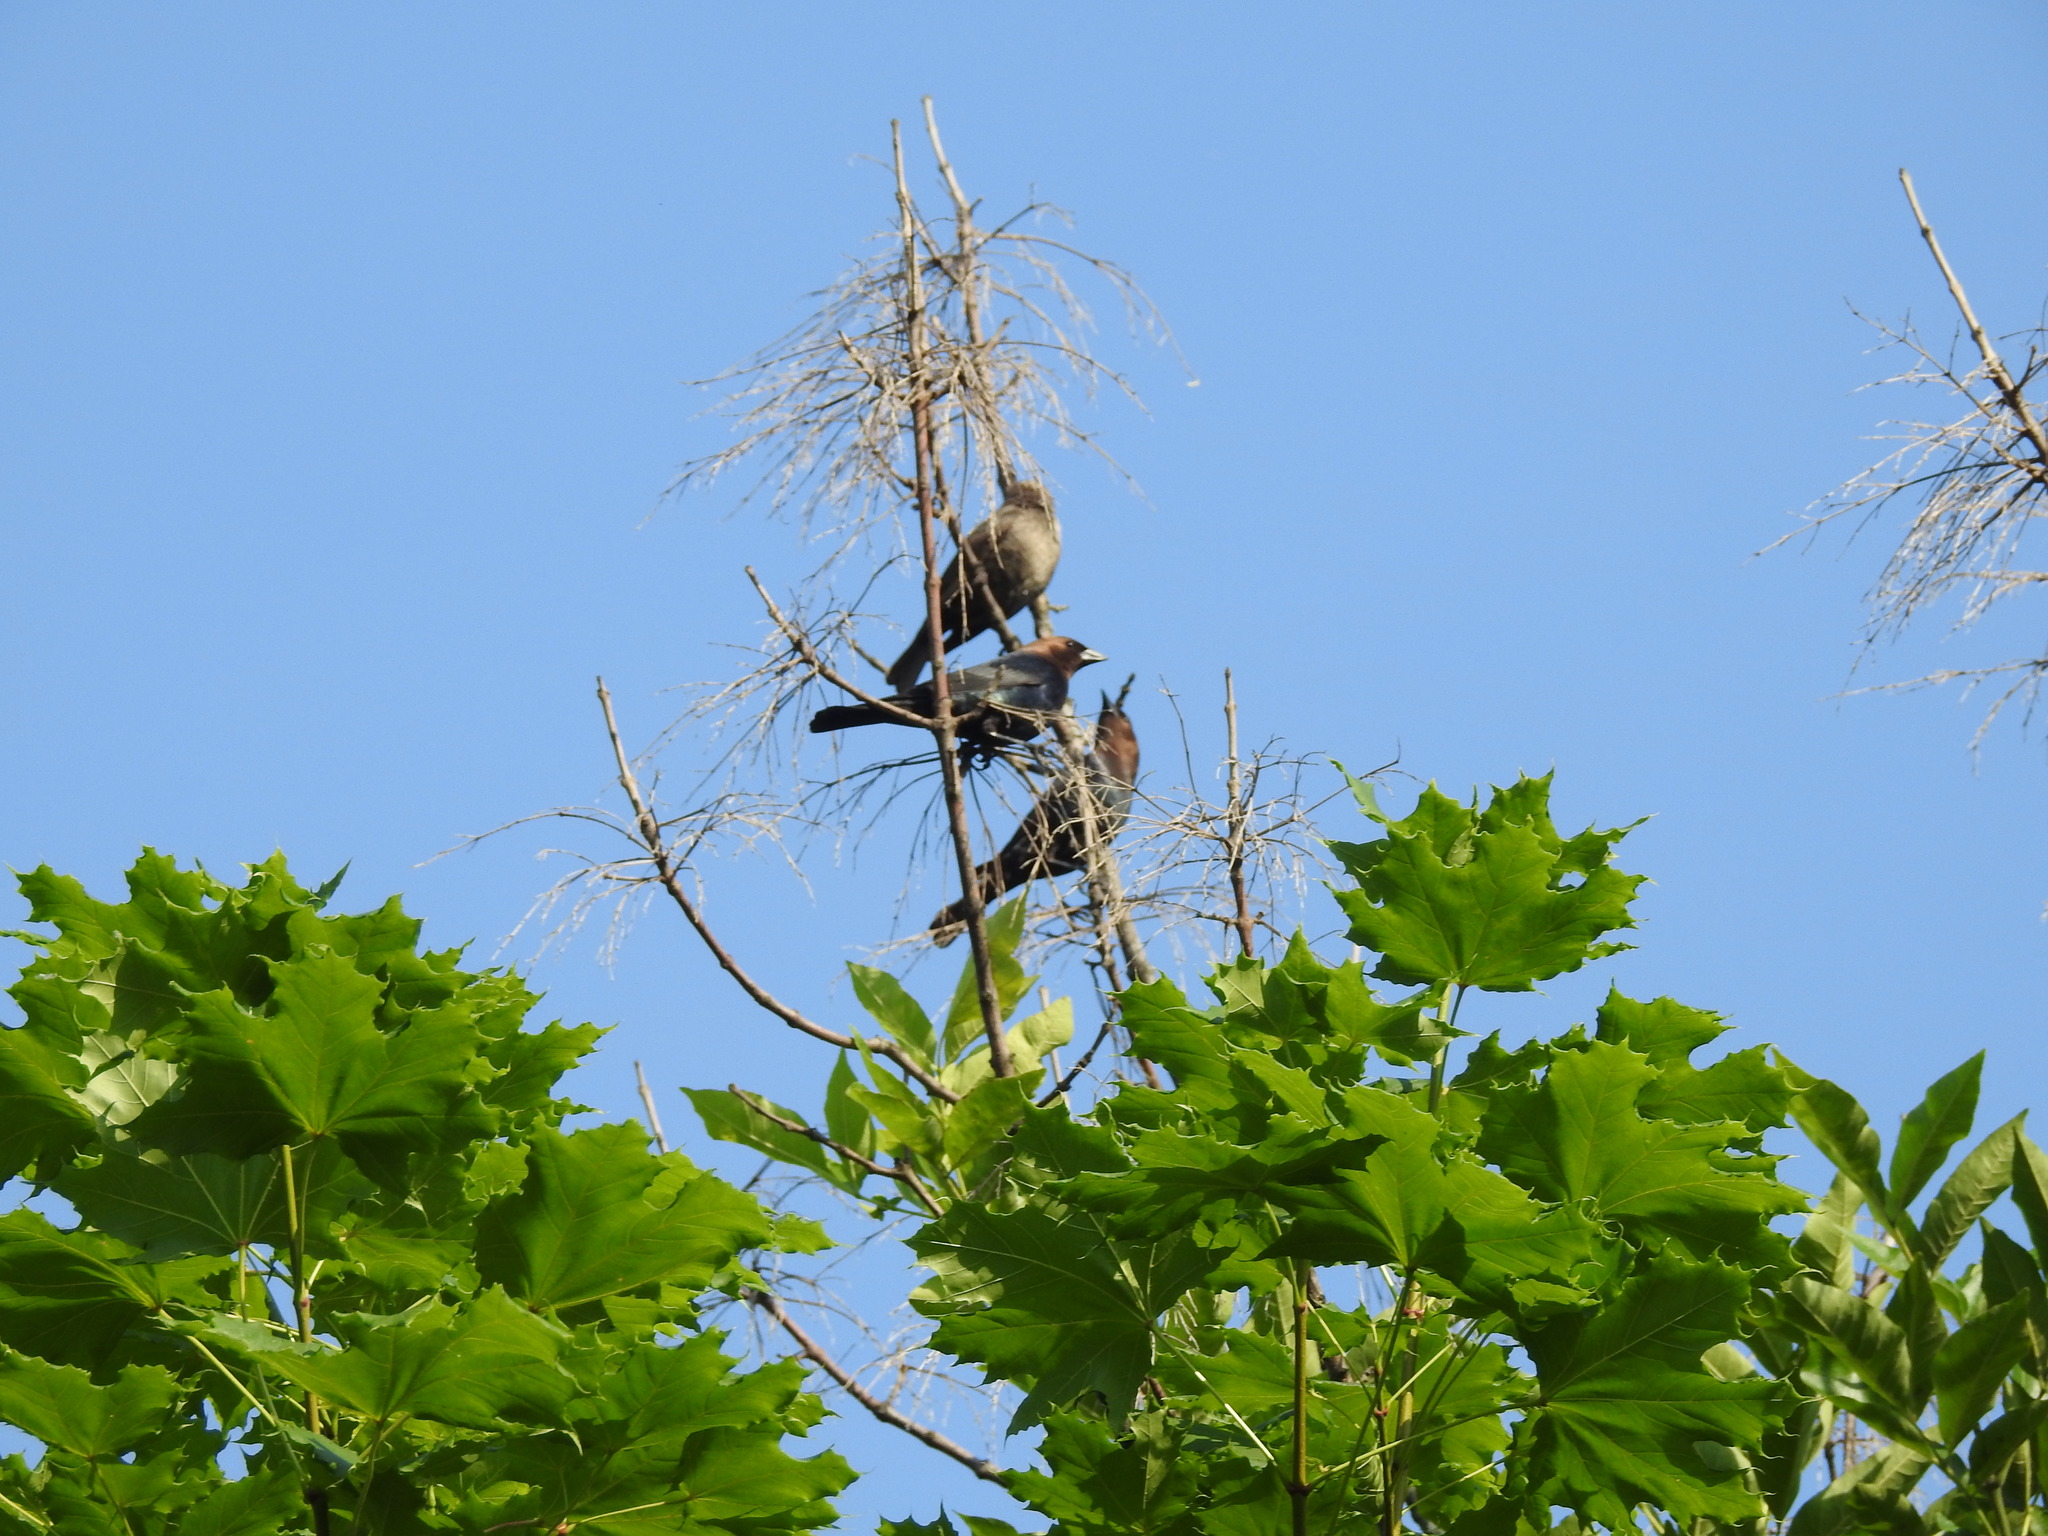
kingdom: Animalia
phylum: Chordata
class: Aves
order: Passeriformes
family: Icteridae
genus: Molothrus
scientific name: Molothrus ater
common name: Brown-headed cowbird
